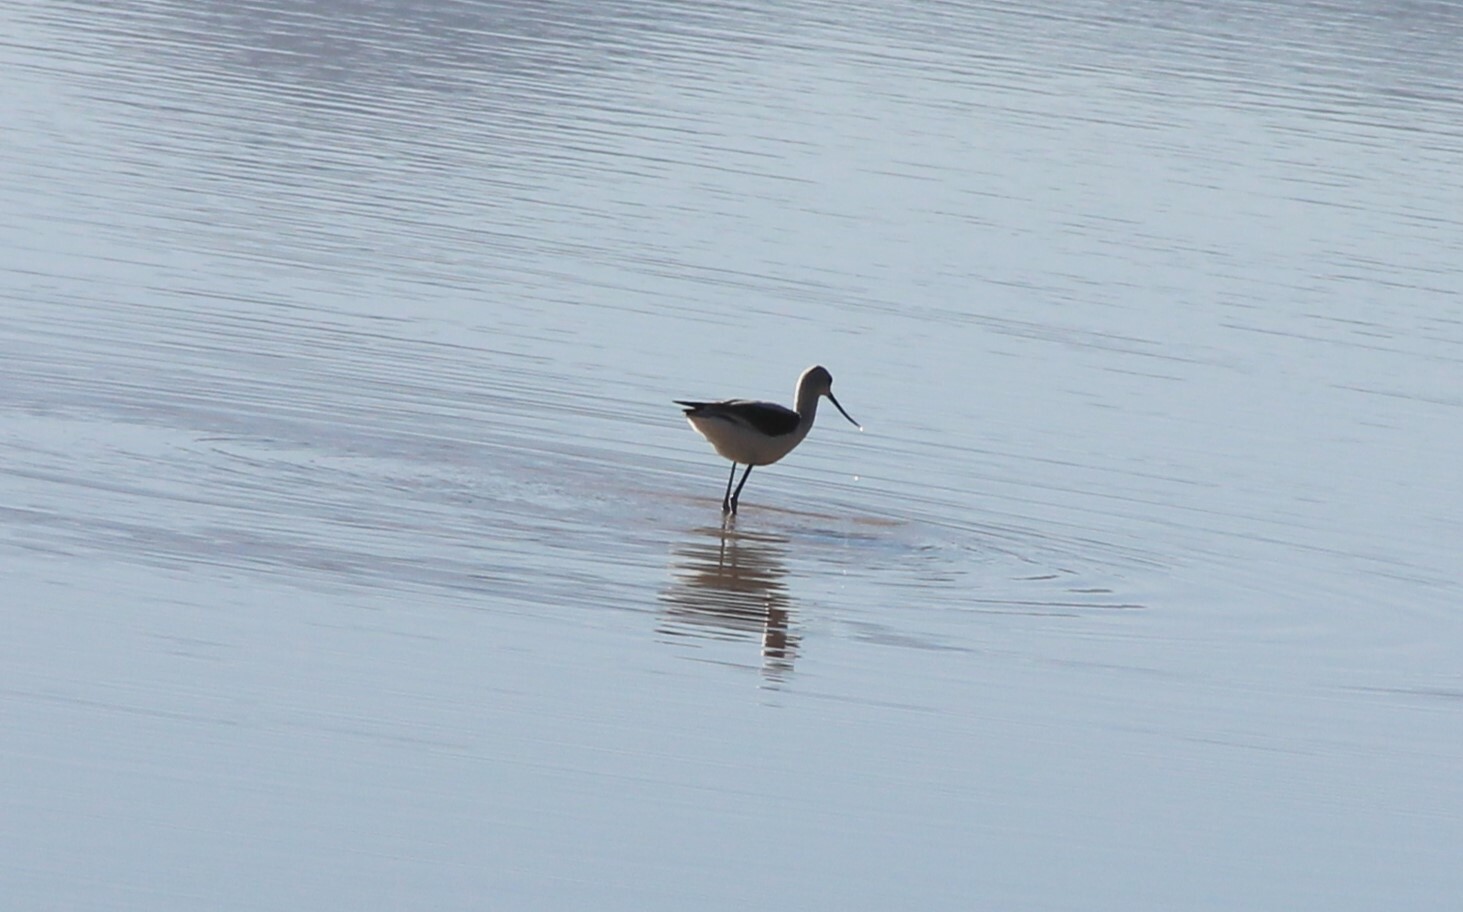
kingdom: Animalia
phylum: Chordata
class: Aves
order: Charadriiformes
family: Recurvirostridae
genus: Recurvirostra
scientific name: Recurvirostra americana
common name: American avocet
